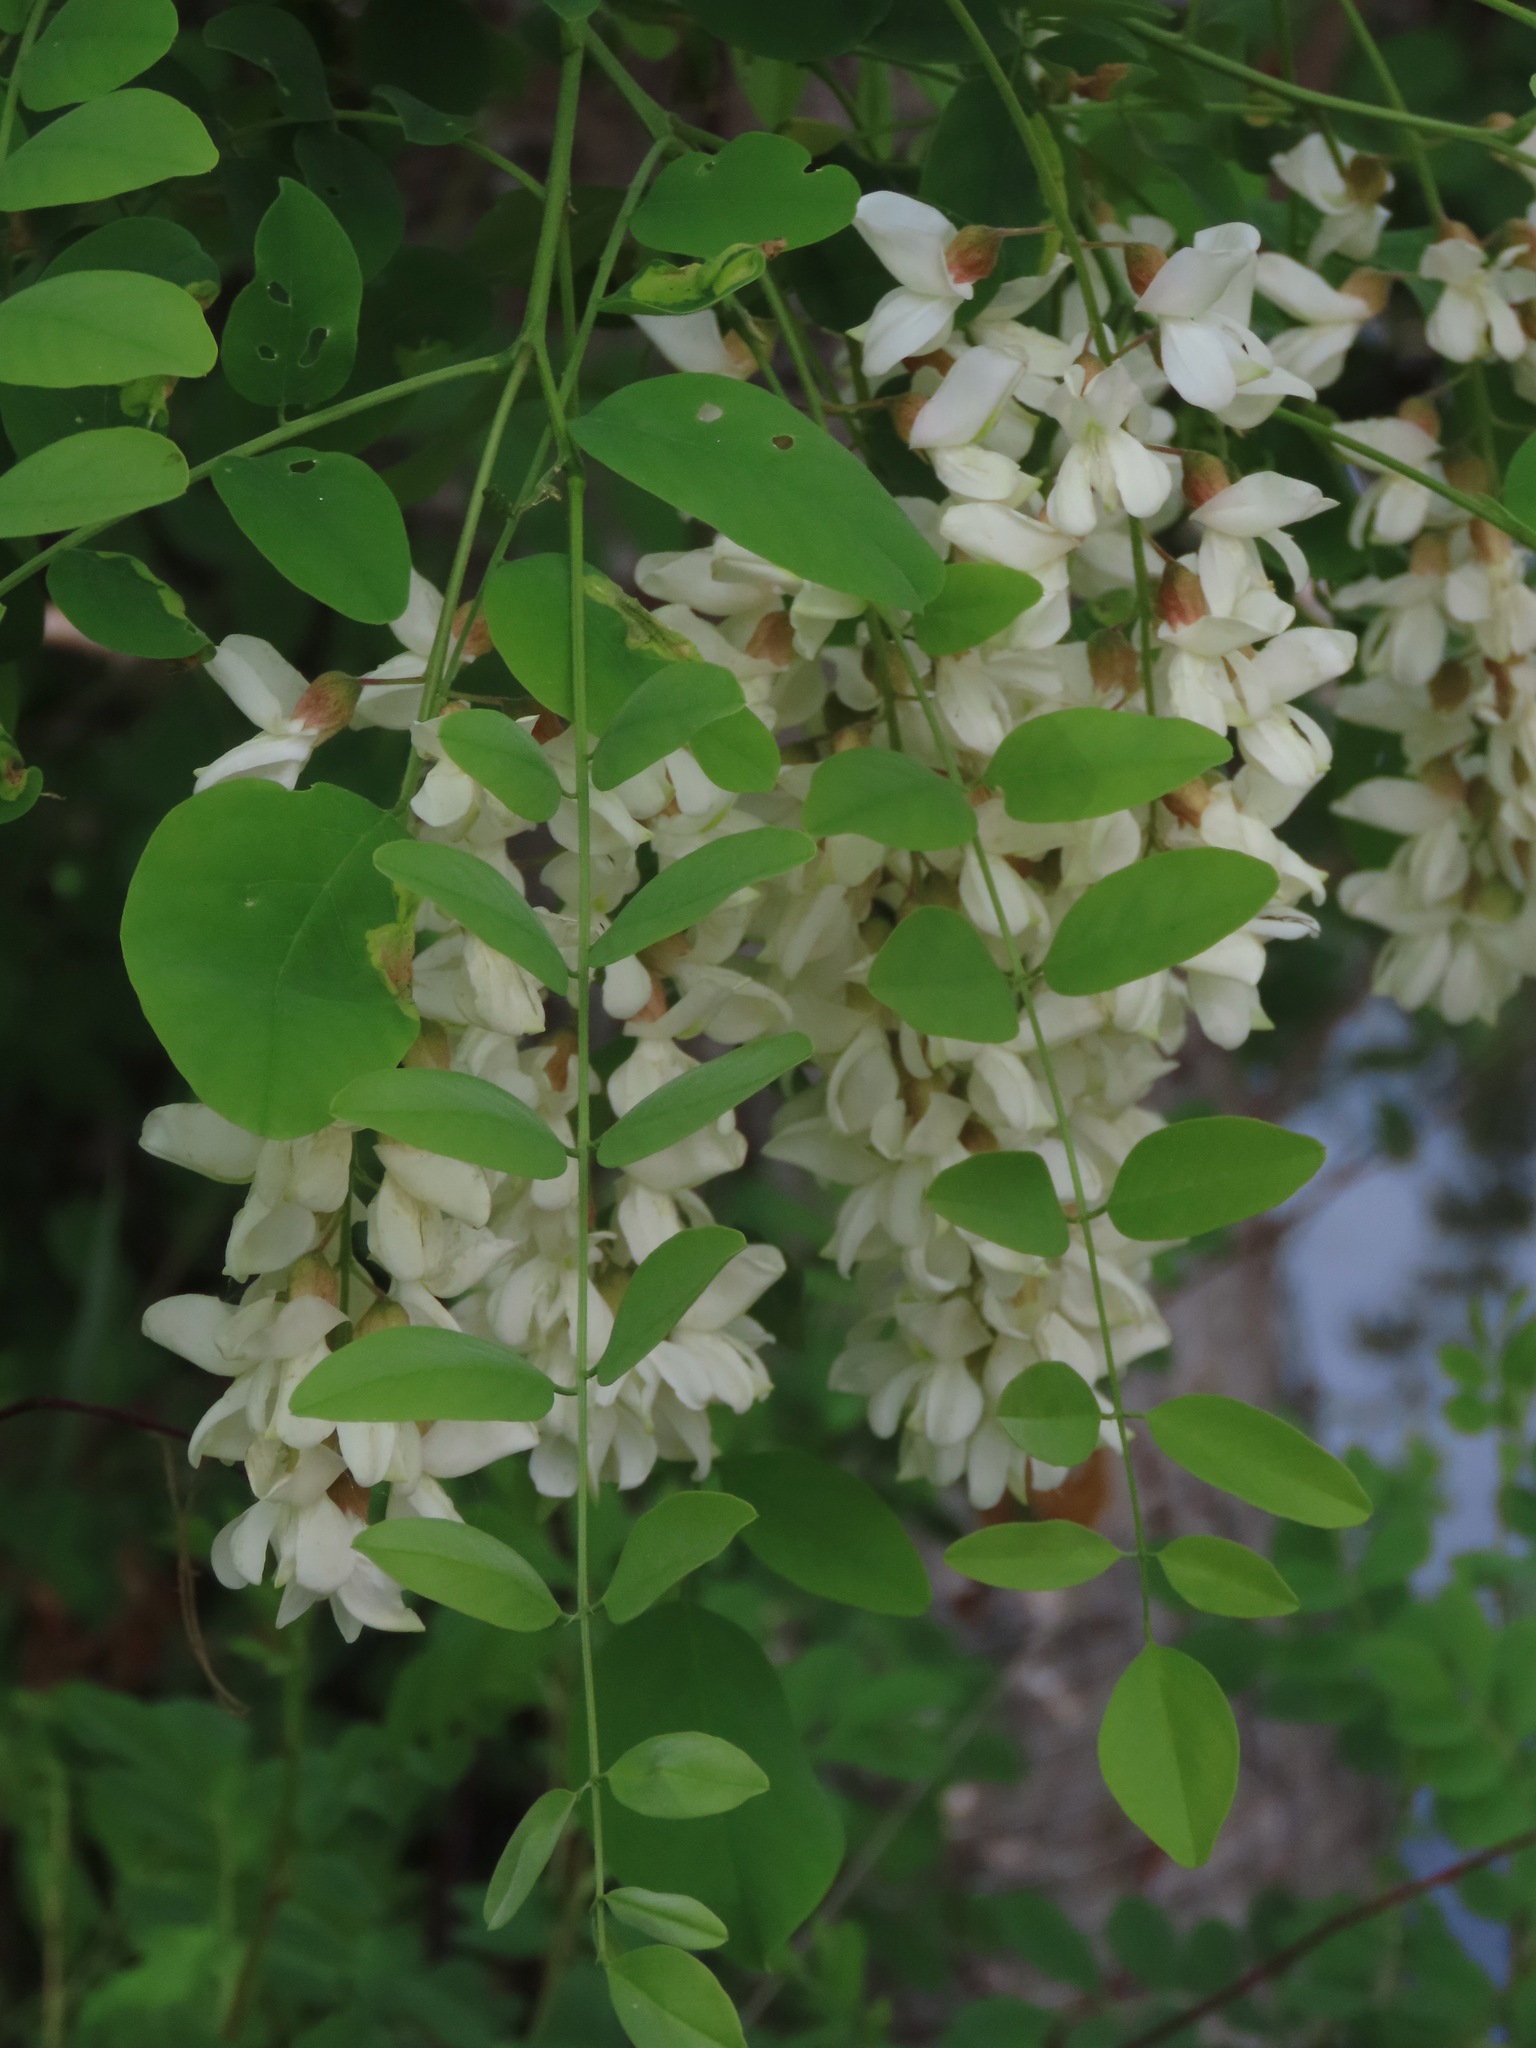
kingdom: Plantae
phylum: Tracheophyta
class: Magnoliopsida
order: Fabales
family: Fabaceae
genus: Robinia
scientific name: Robinia pseudoacacia
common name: Black locust
